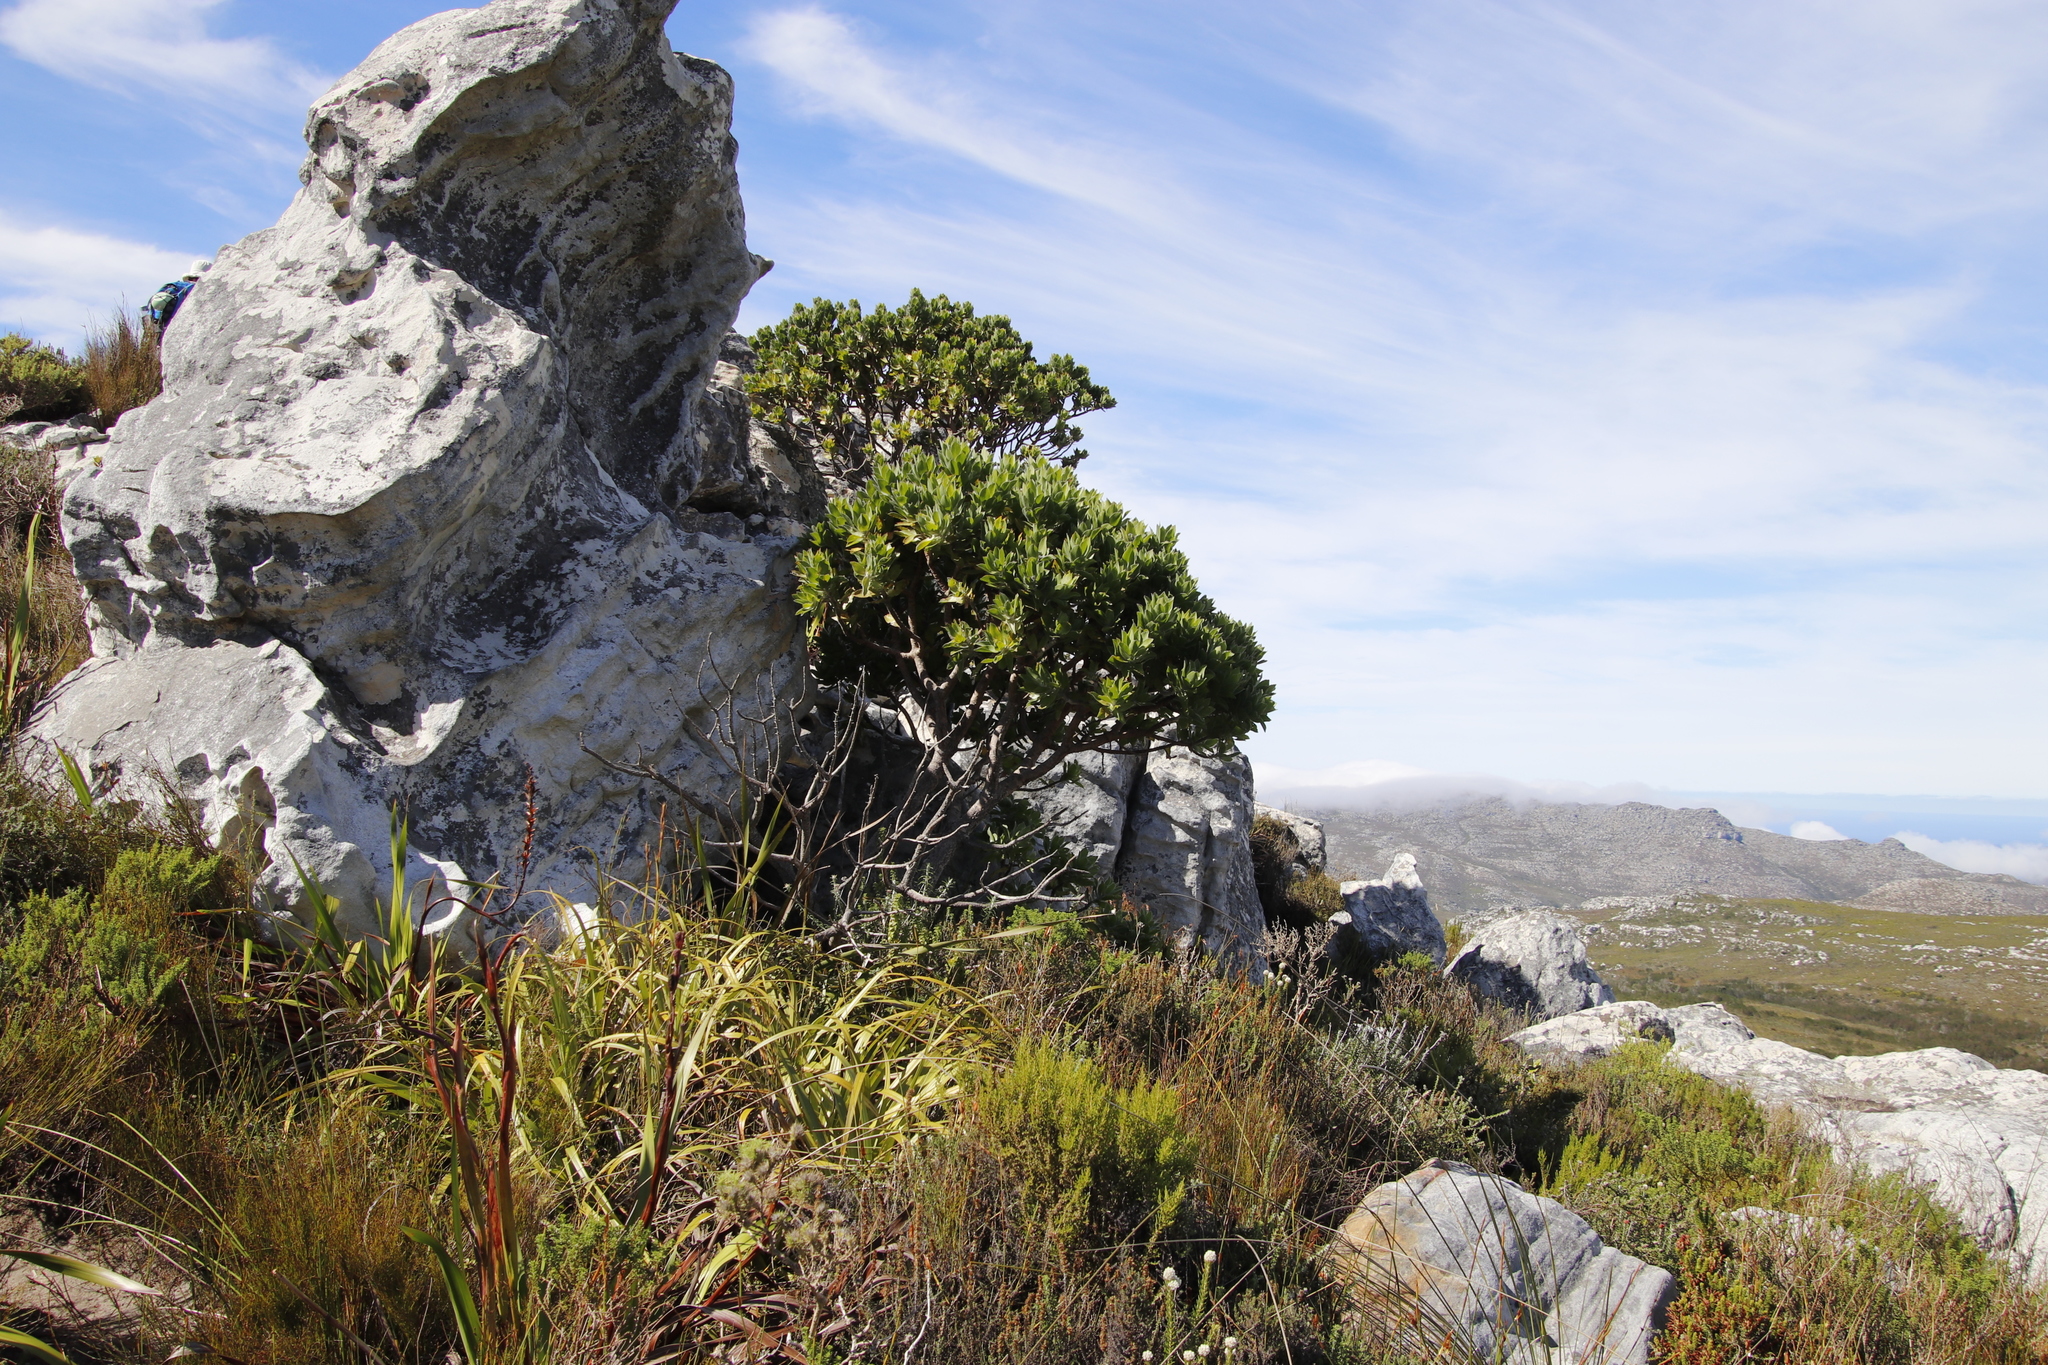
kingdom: Plantae
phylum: Tracheophyta
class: Magnoliopsida
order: Proteales
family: Proteaceae
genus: Leucospermum
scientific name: Leucospermum conocarpodendron
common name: Tree pincushion
